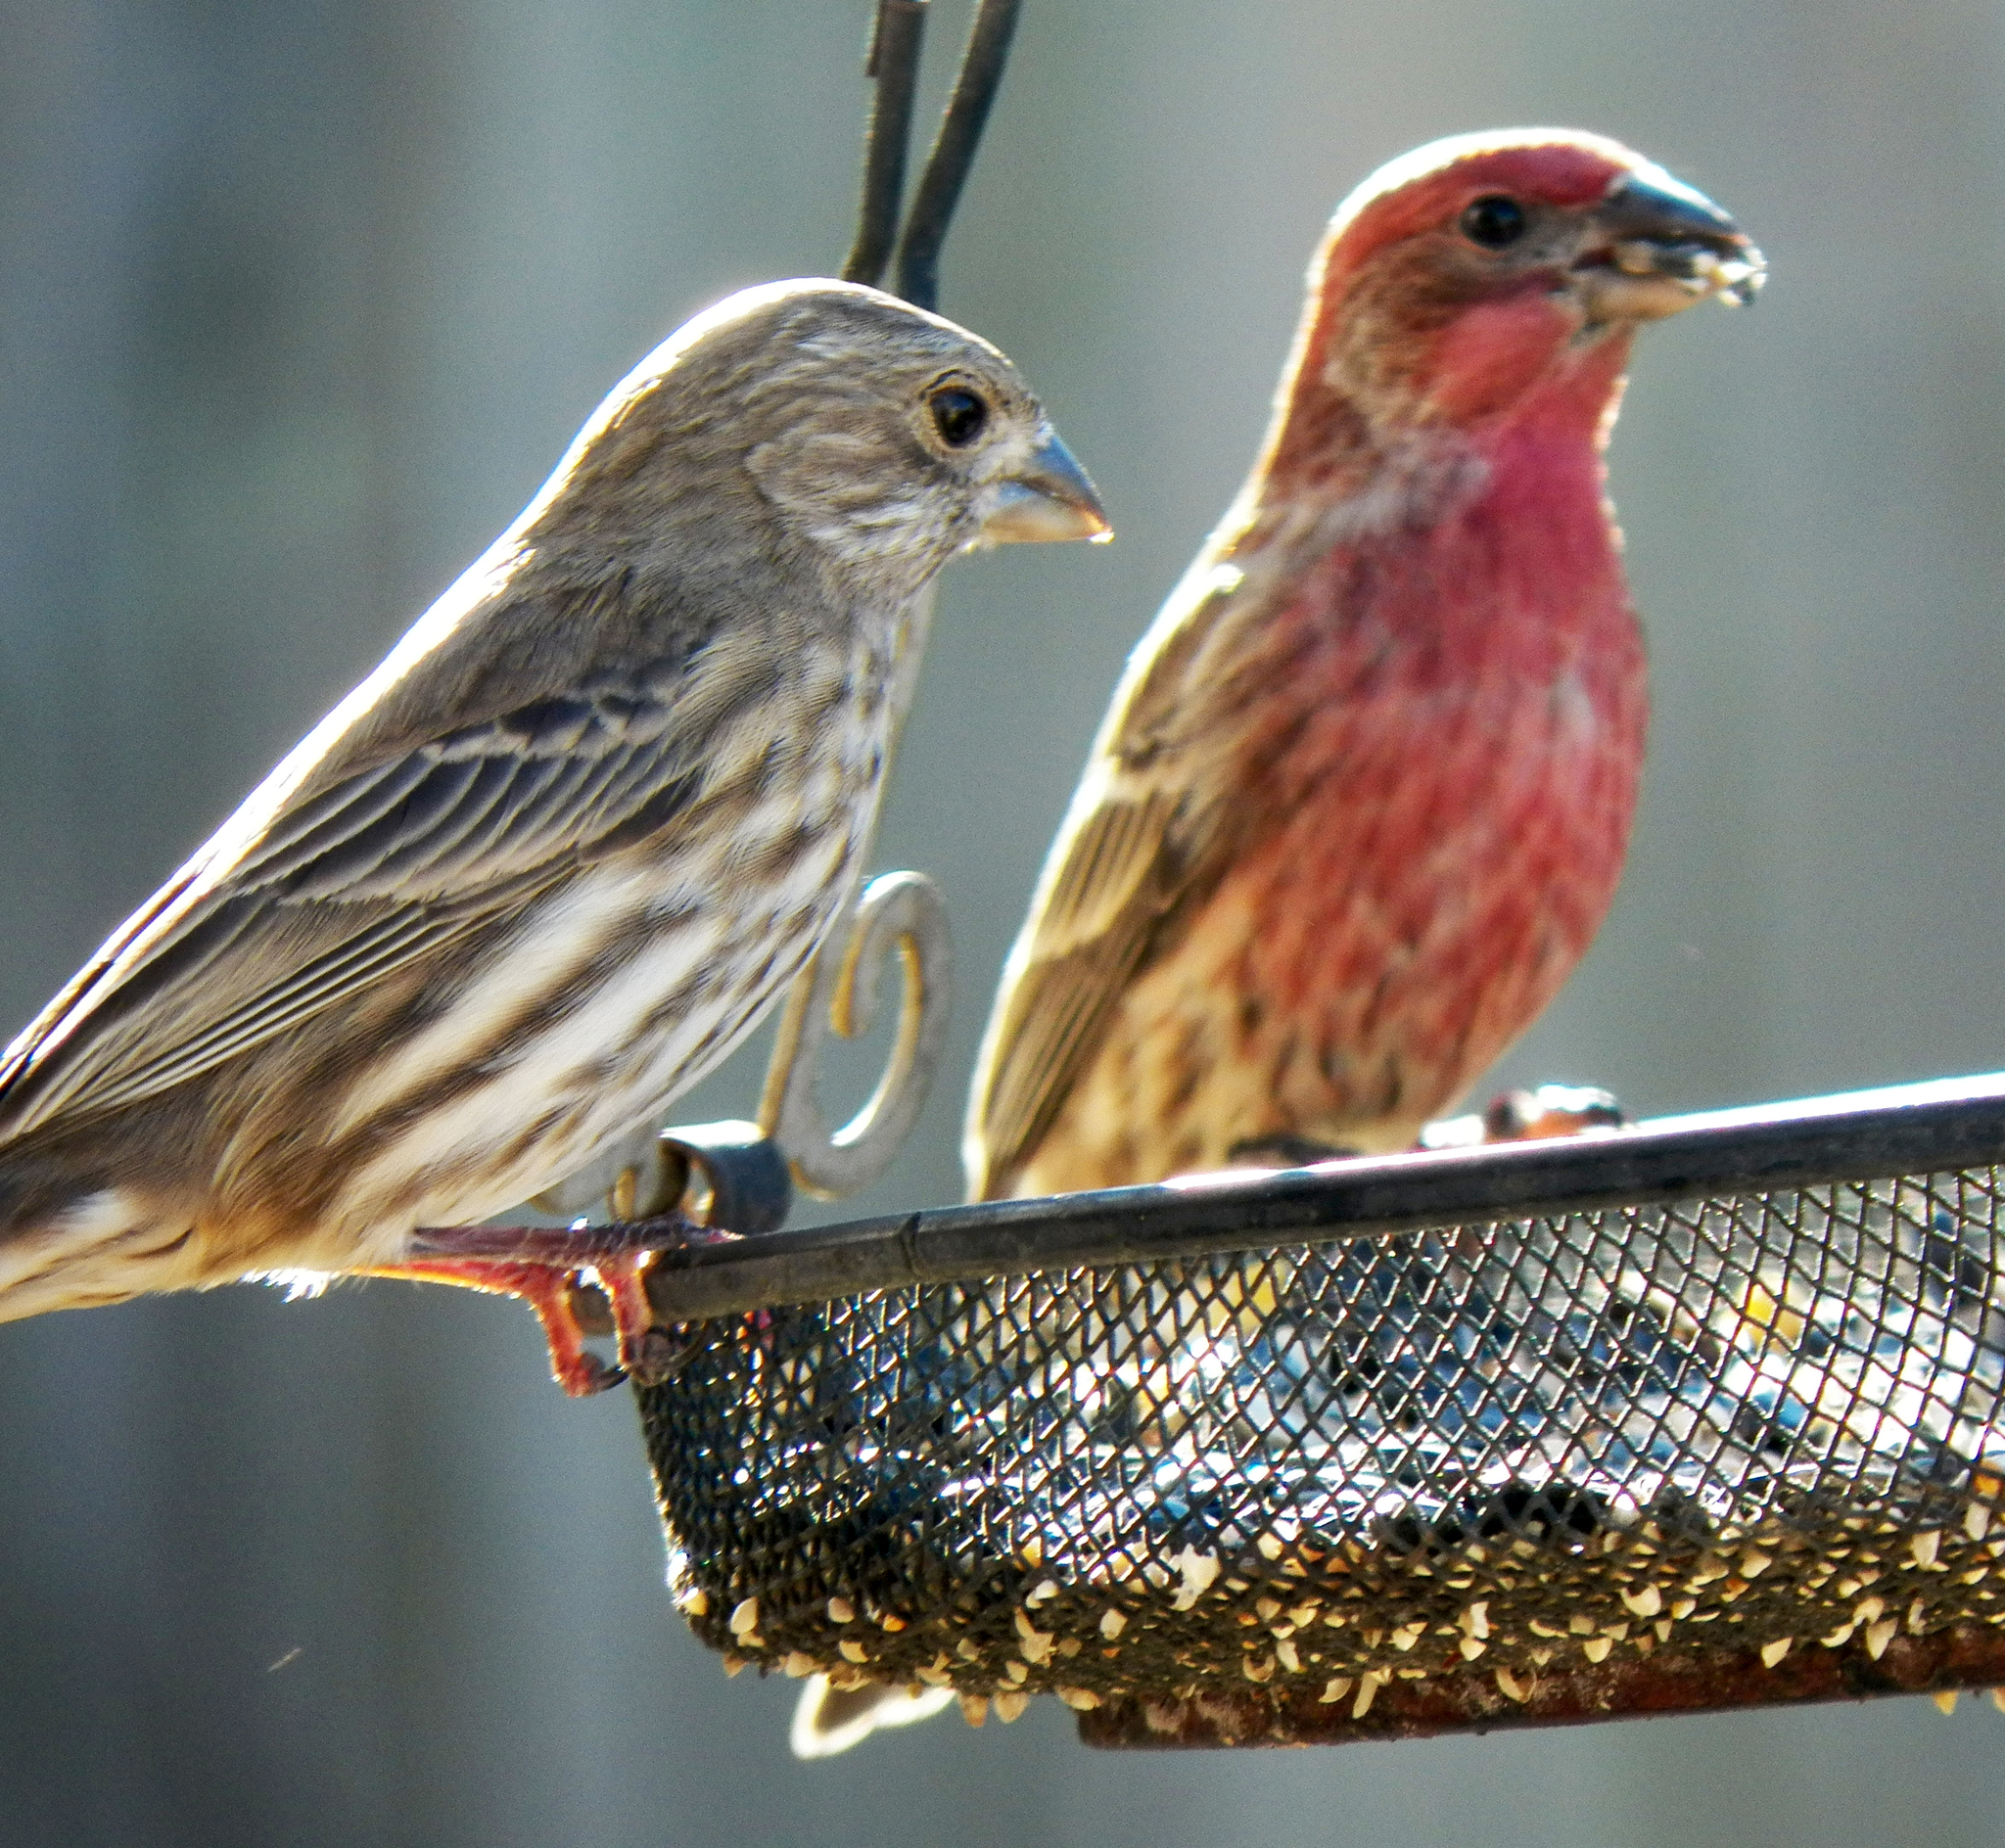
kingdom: Animalia
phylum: Chordata
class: Aves
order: Passeriformes
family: Fringillidae
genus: Haemorhous
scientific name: Haemorhous mexicanus
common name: House finch
